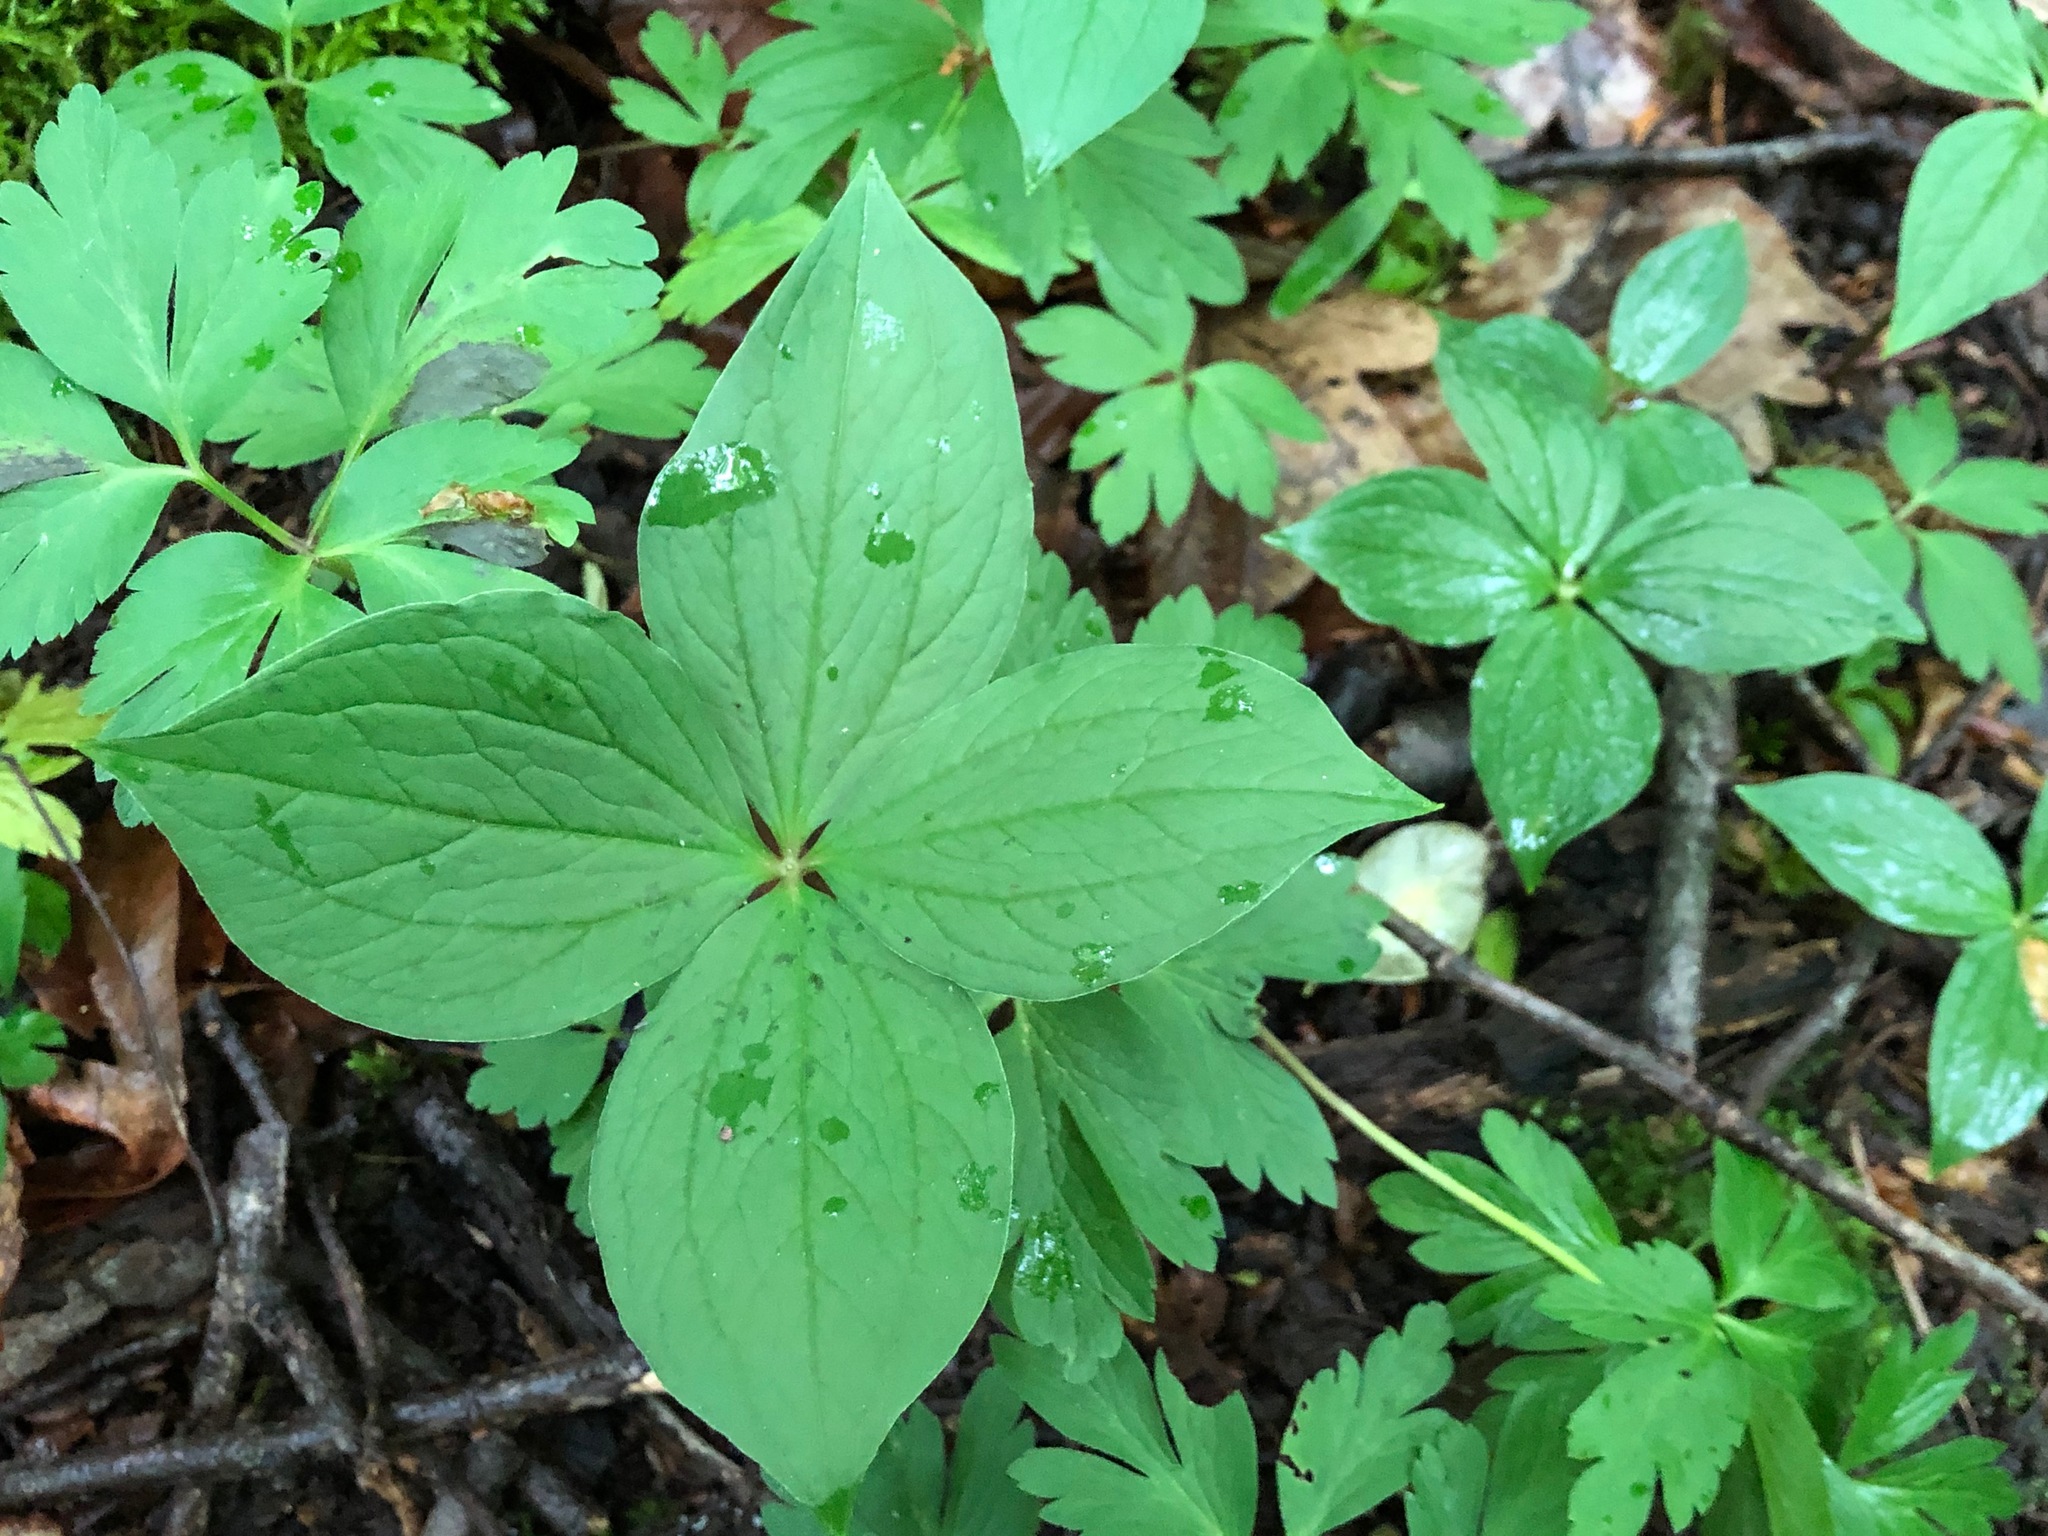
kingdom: Plantae
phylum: Tracheophyta
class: Liliopsida
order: Liliales
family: Melanthiaceae
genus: Paris
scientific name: Paris quadrifolia
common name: Herb-paris
